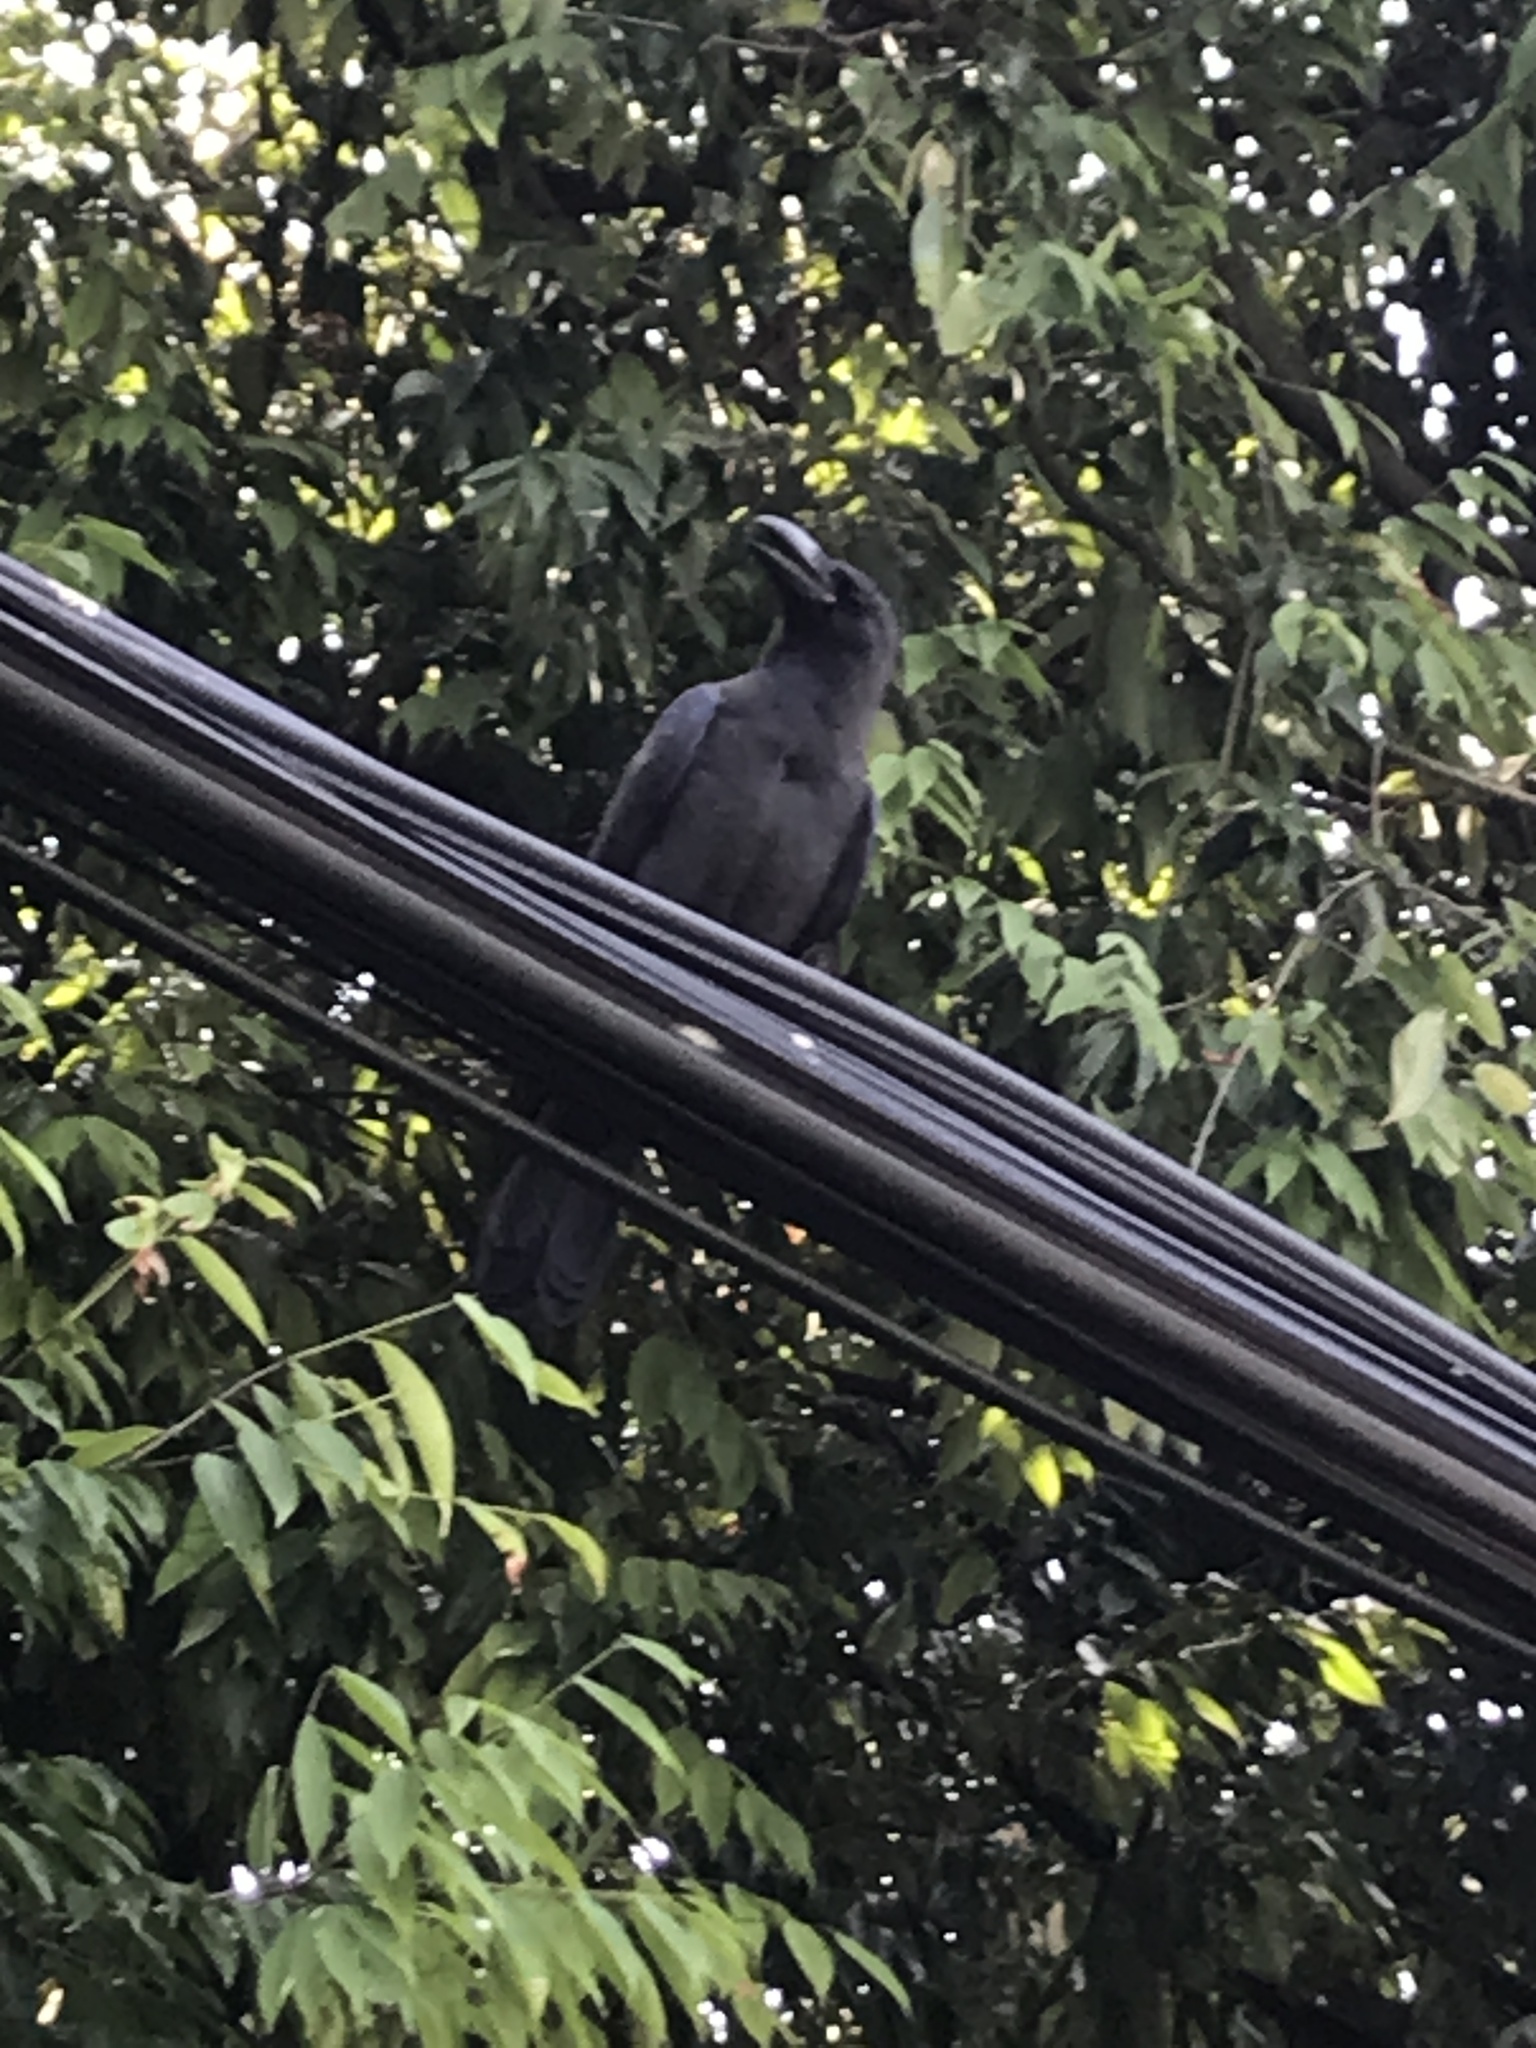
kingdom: Animalia
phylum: Chordata
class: Aves
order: Passeriformes
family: Corvidae
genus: Corvus
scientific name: Corvus splendens
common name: House crow
